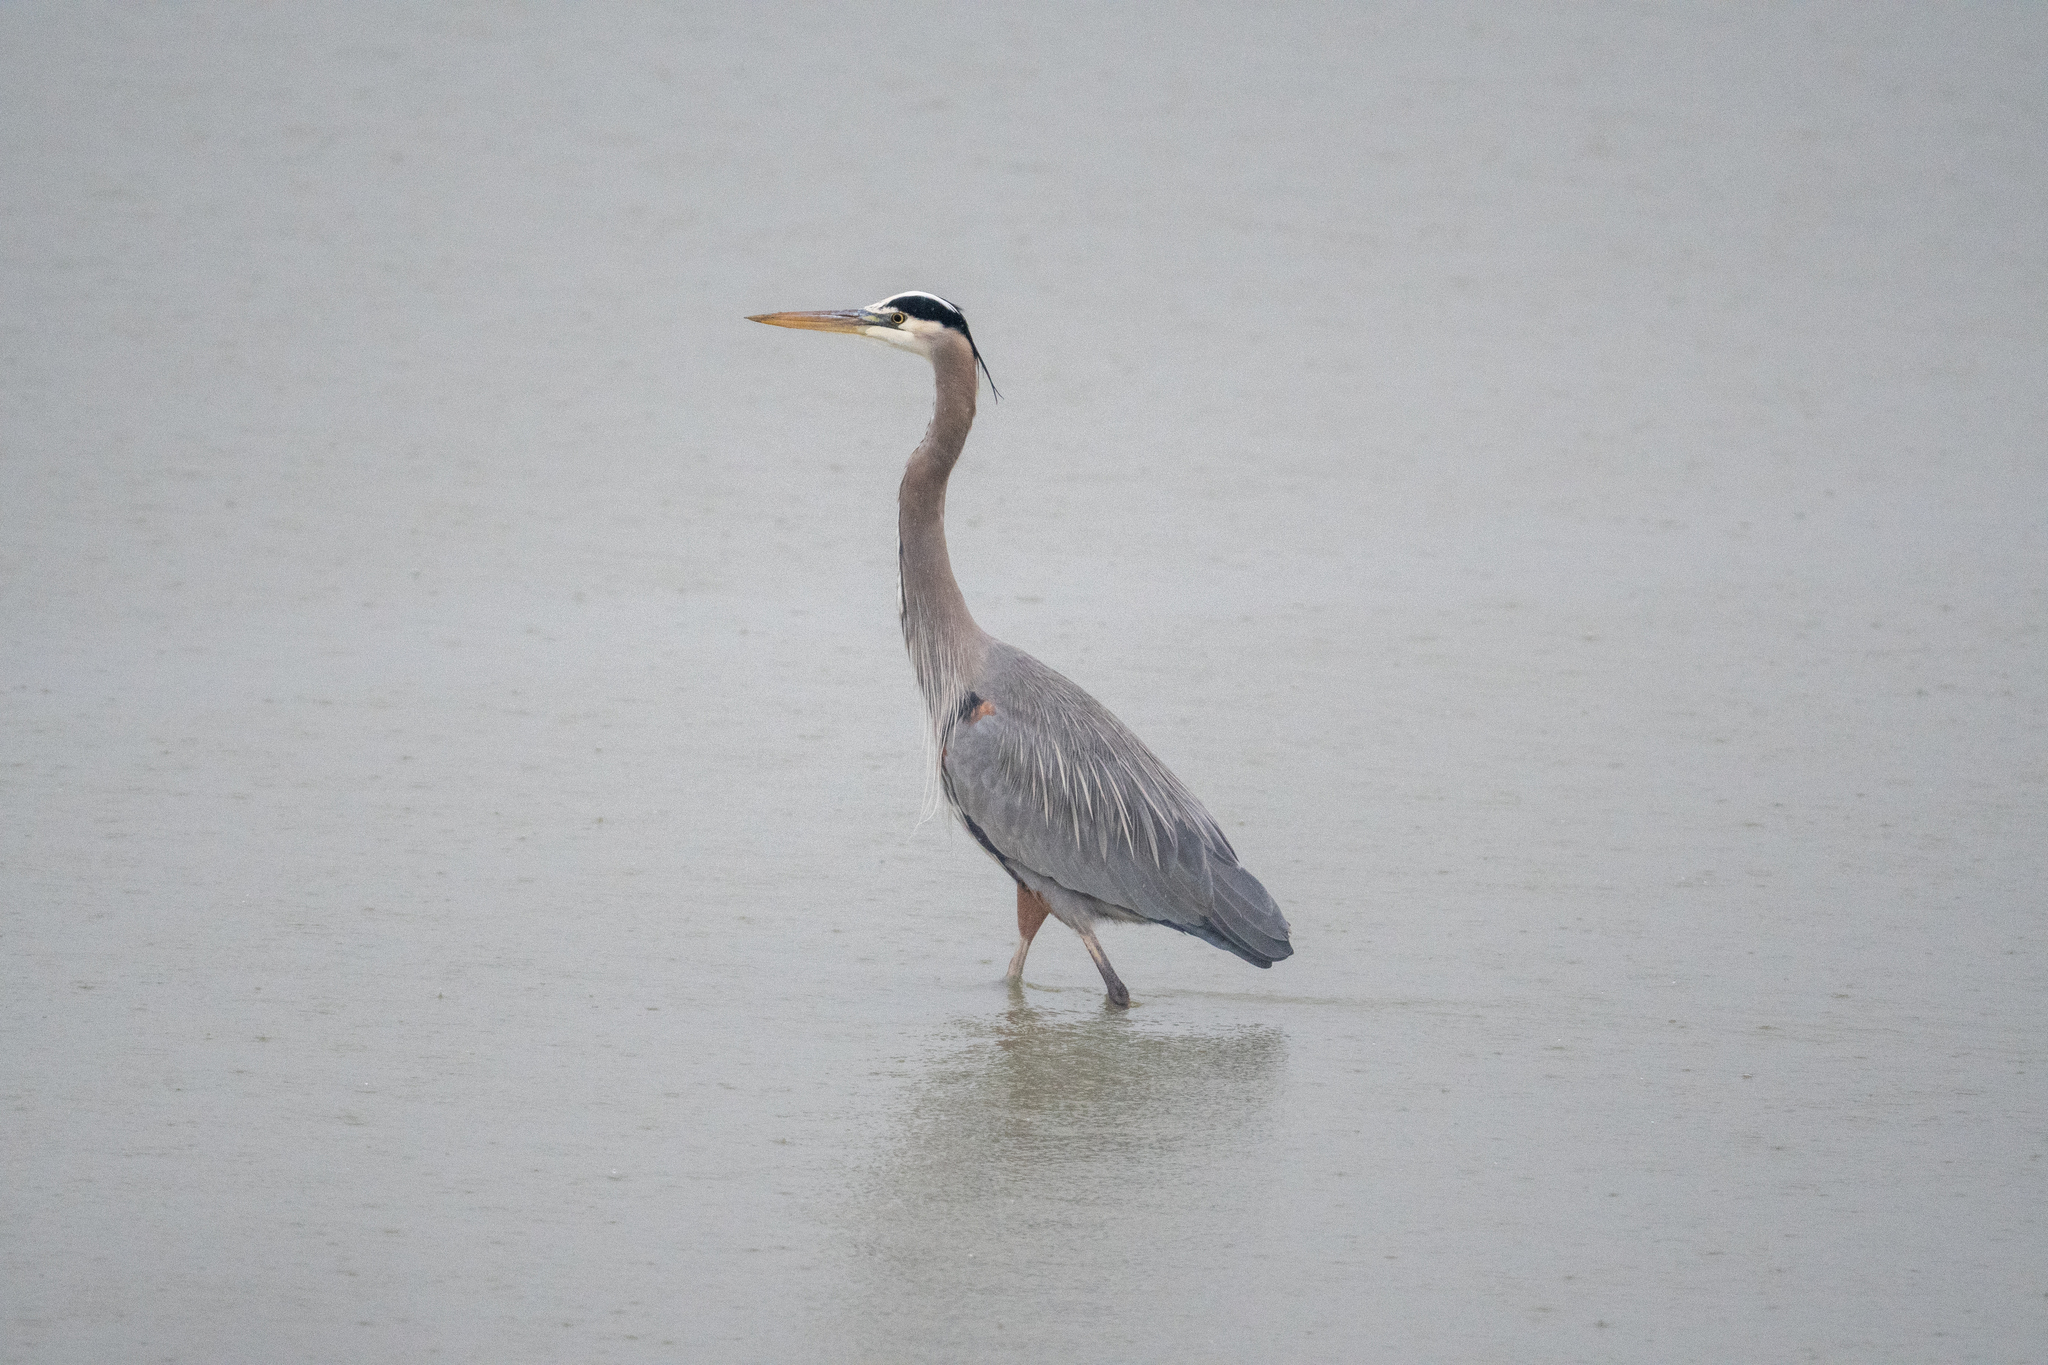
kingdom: Animalia
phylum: Chordata
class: Aves
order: Pelecaniformes
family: Ardeidae
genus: Ardea
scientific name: Ardea herodias
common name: Great blue heron
